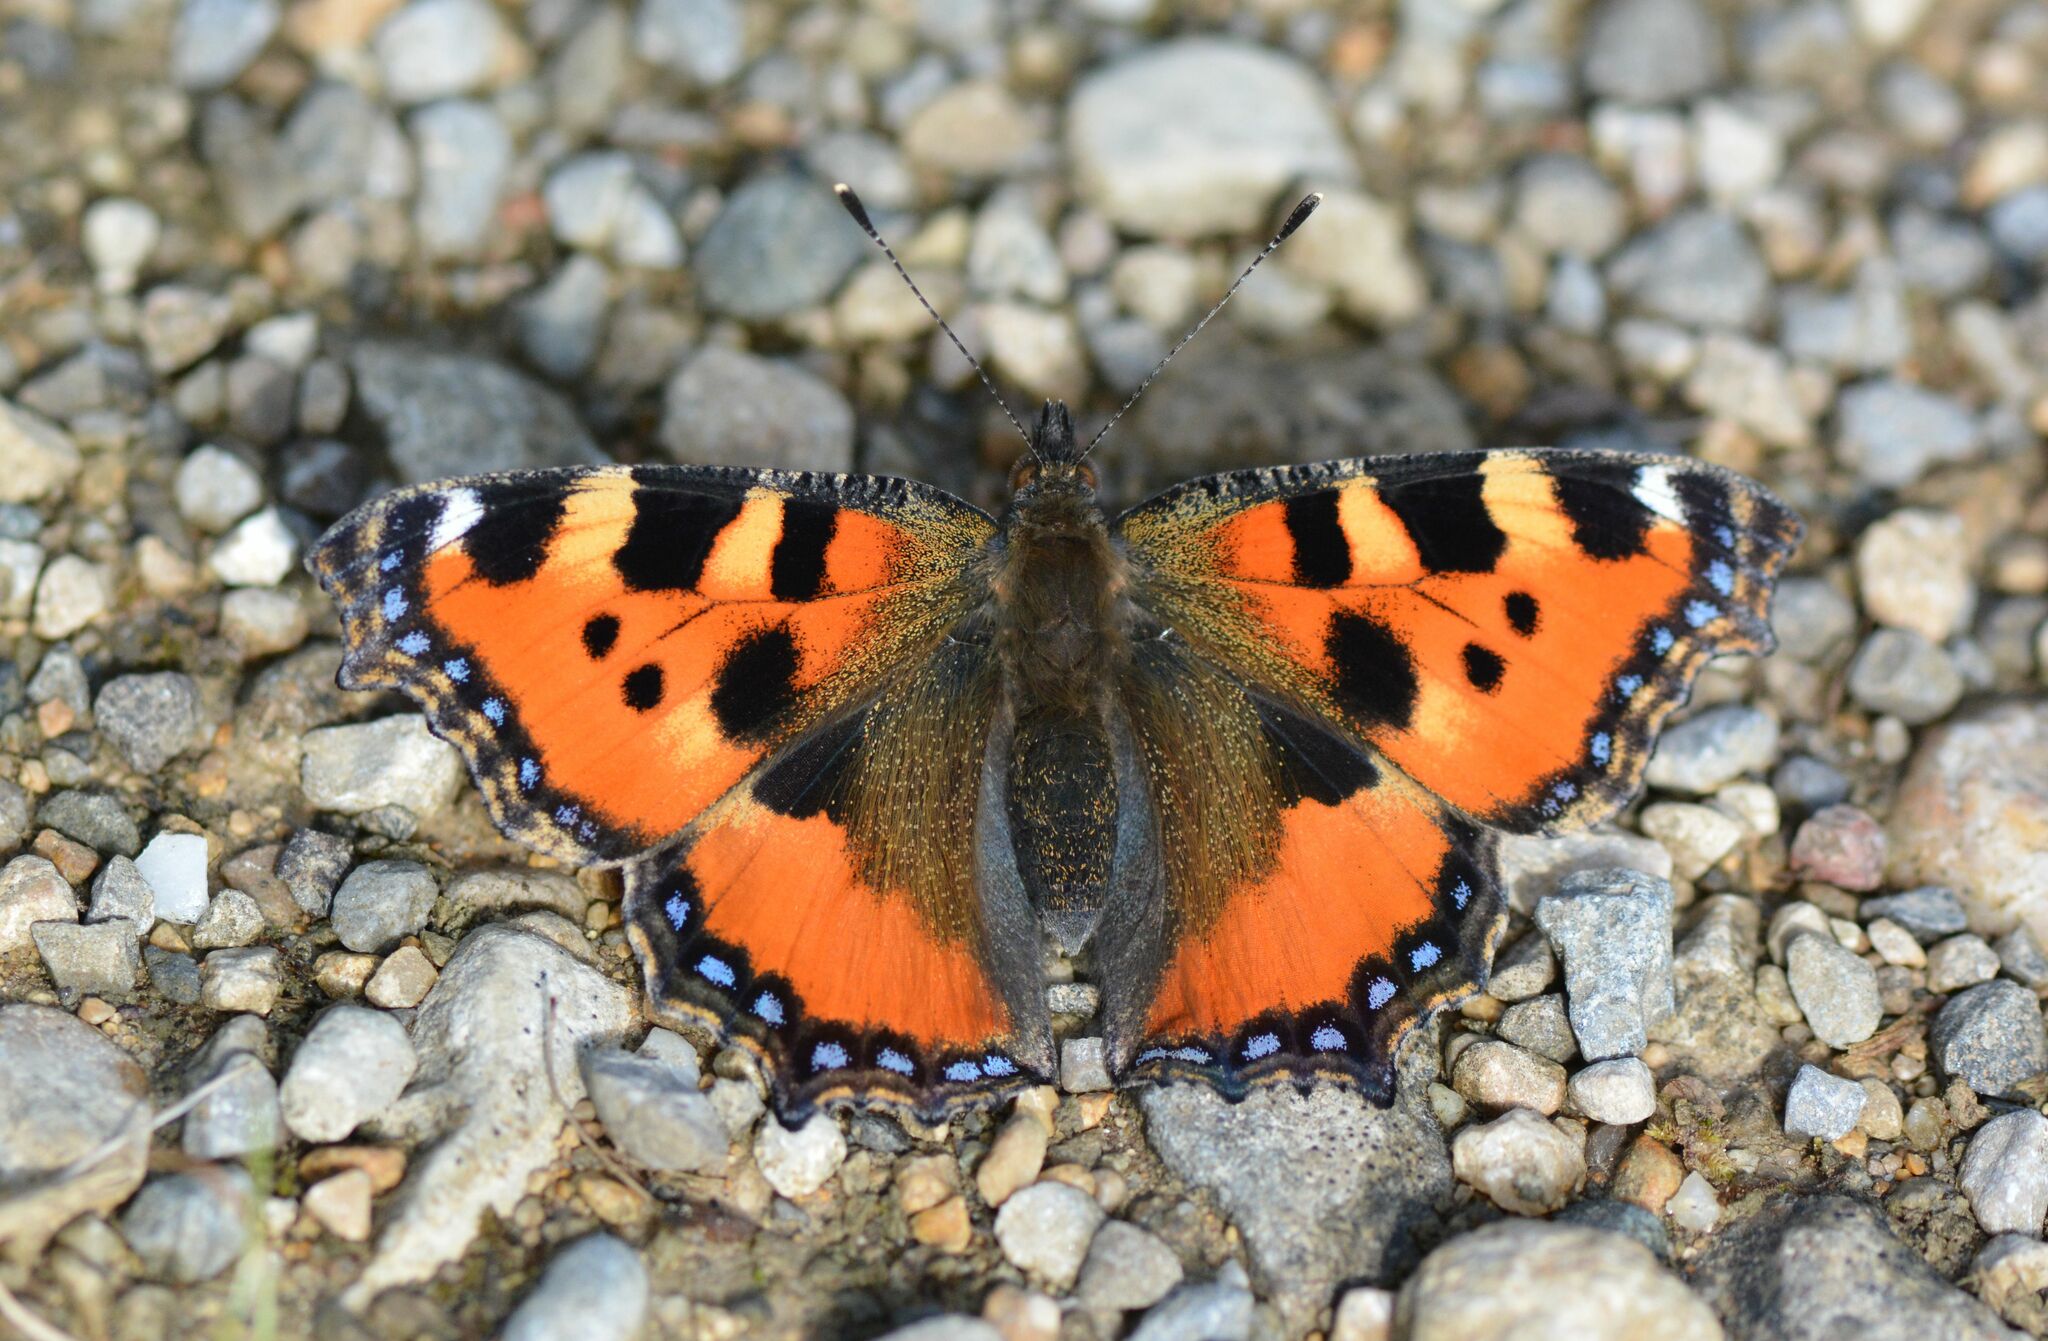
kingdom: Animalia
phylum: Arthropoda
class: Insecta
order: Lepidoptera
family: Nymphalidae
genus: Aglais
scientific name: Aglais urticae
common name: Small tortoiseshell
